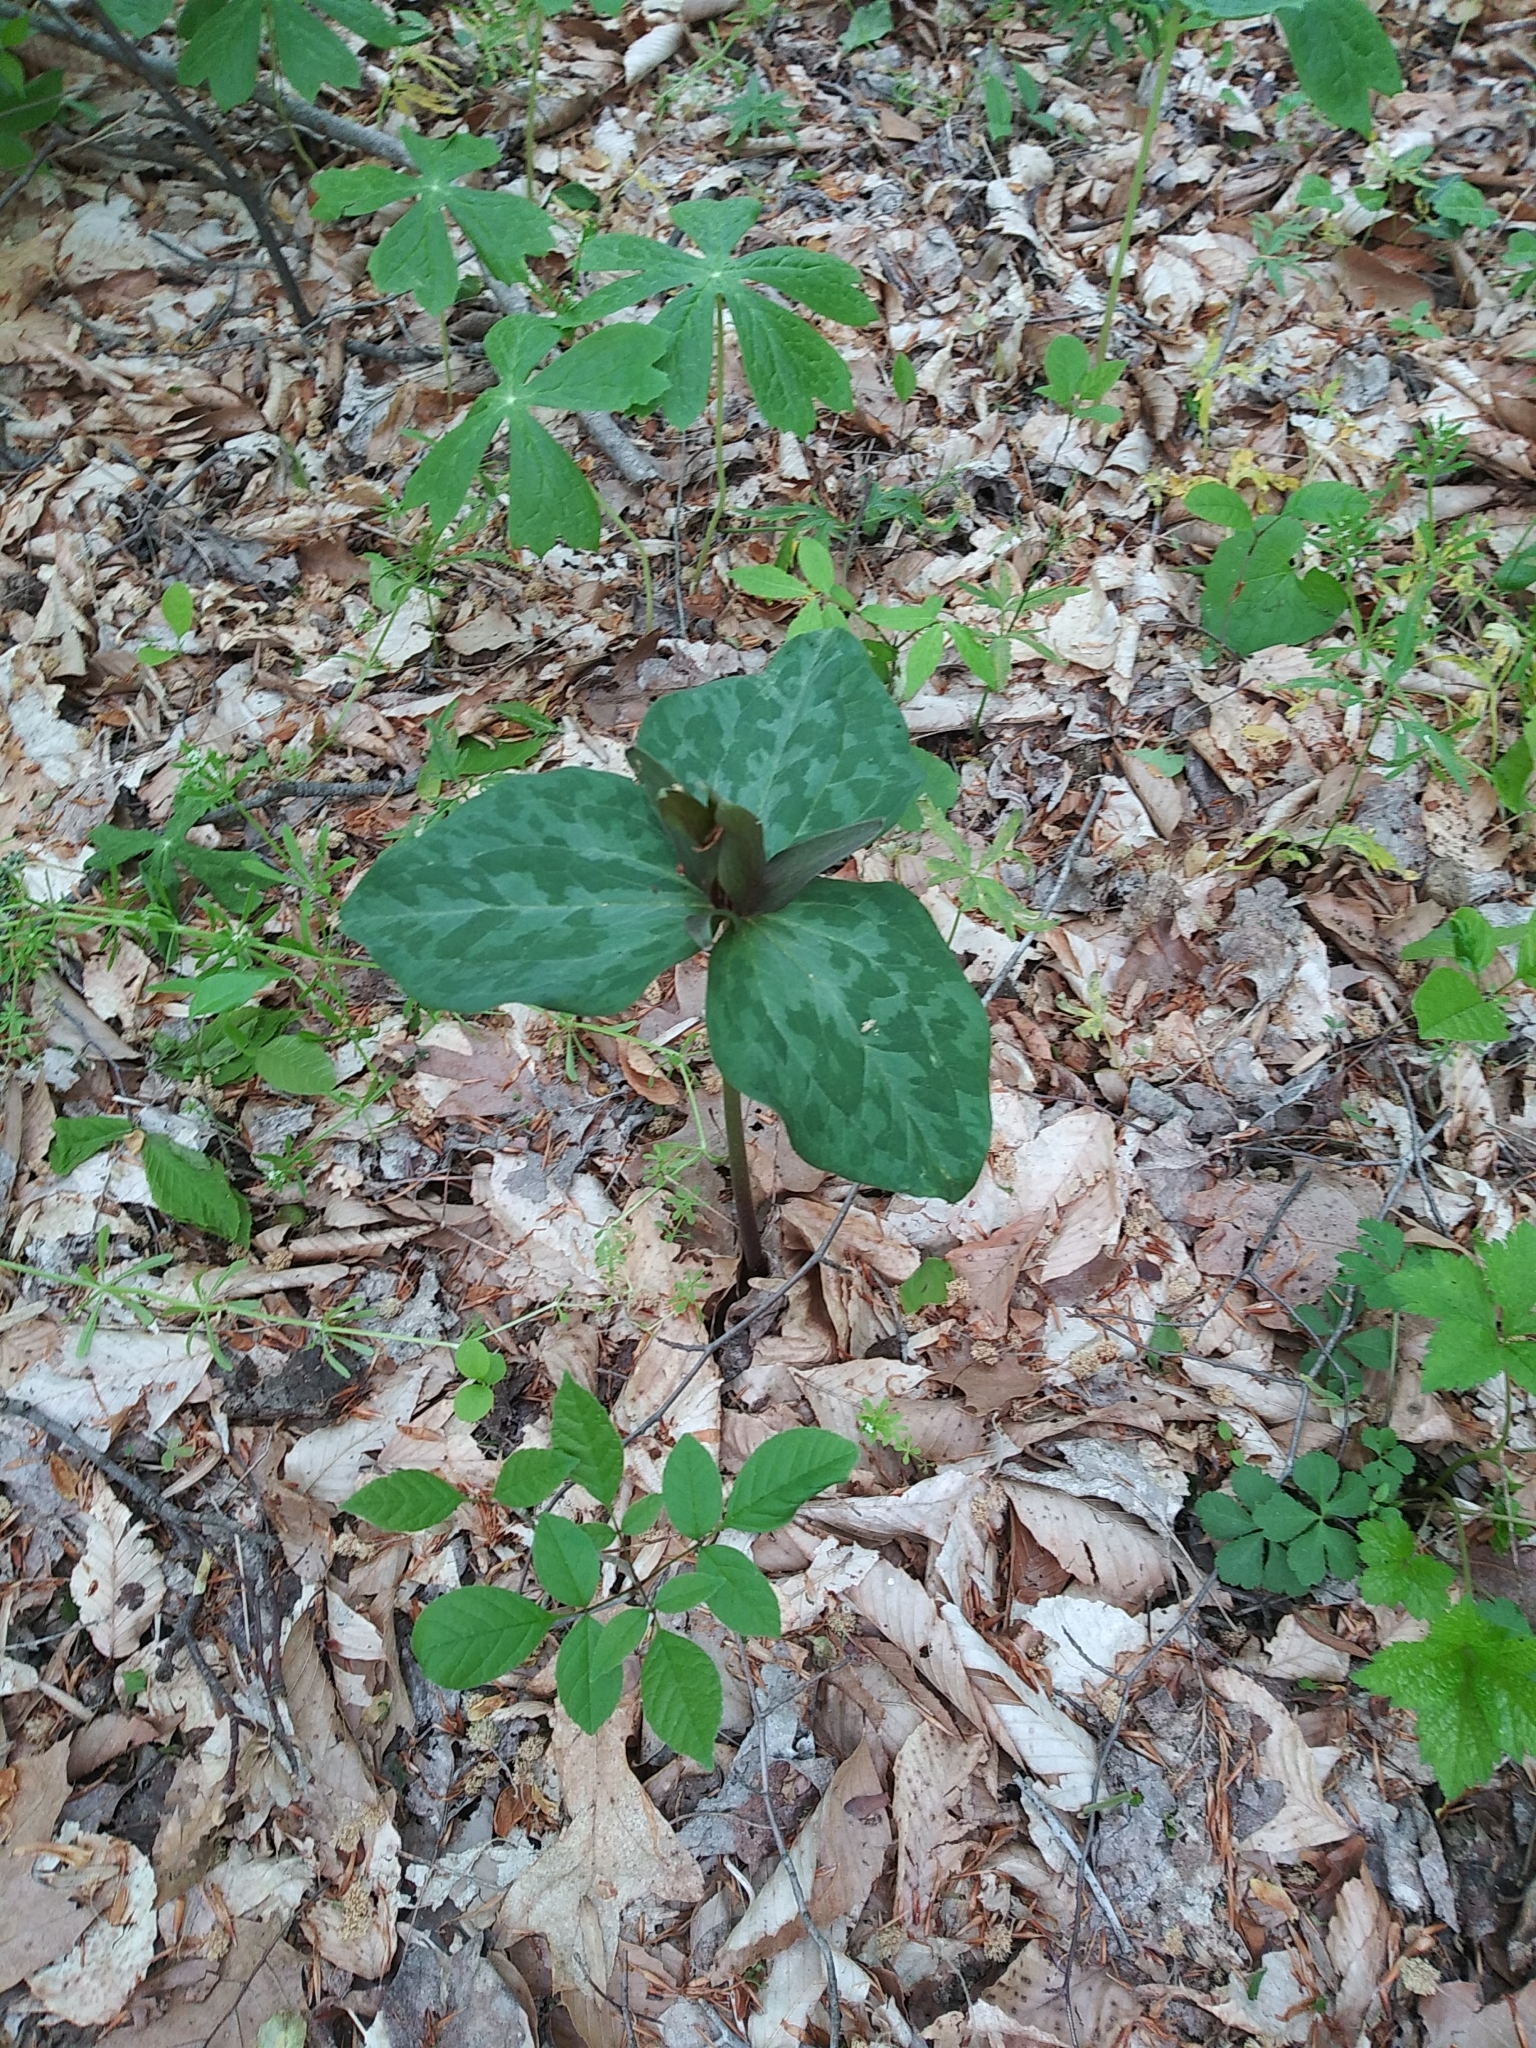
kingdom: Plantae
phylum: Tracheophyta
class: Liliopsida
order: Liliales
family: Melanthiaceae
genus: Trillium
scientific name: Trillium cuneatum
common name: Cuneate trillium
